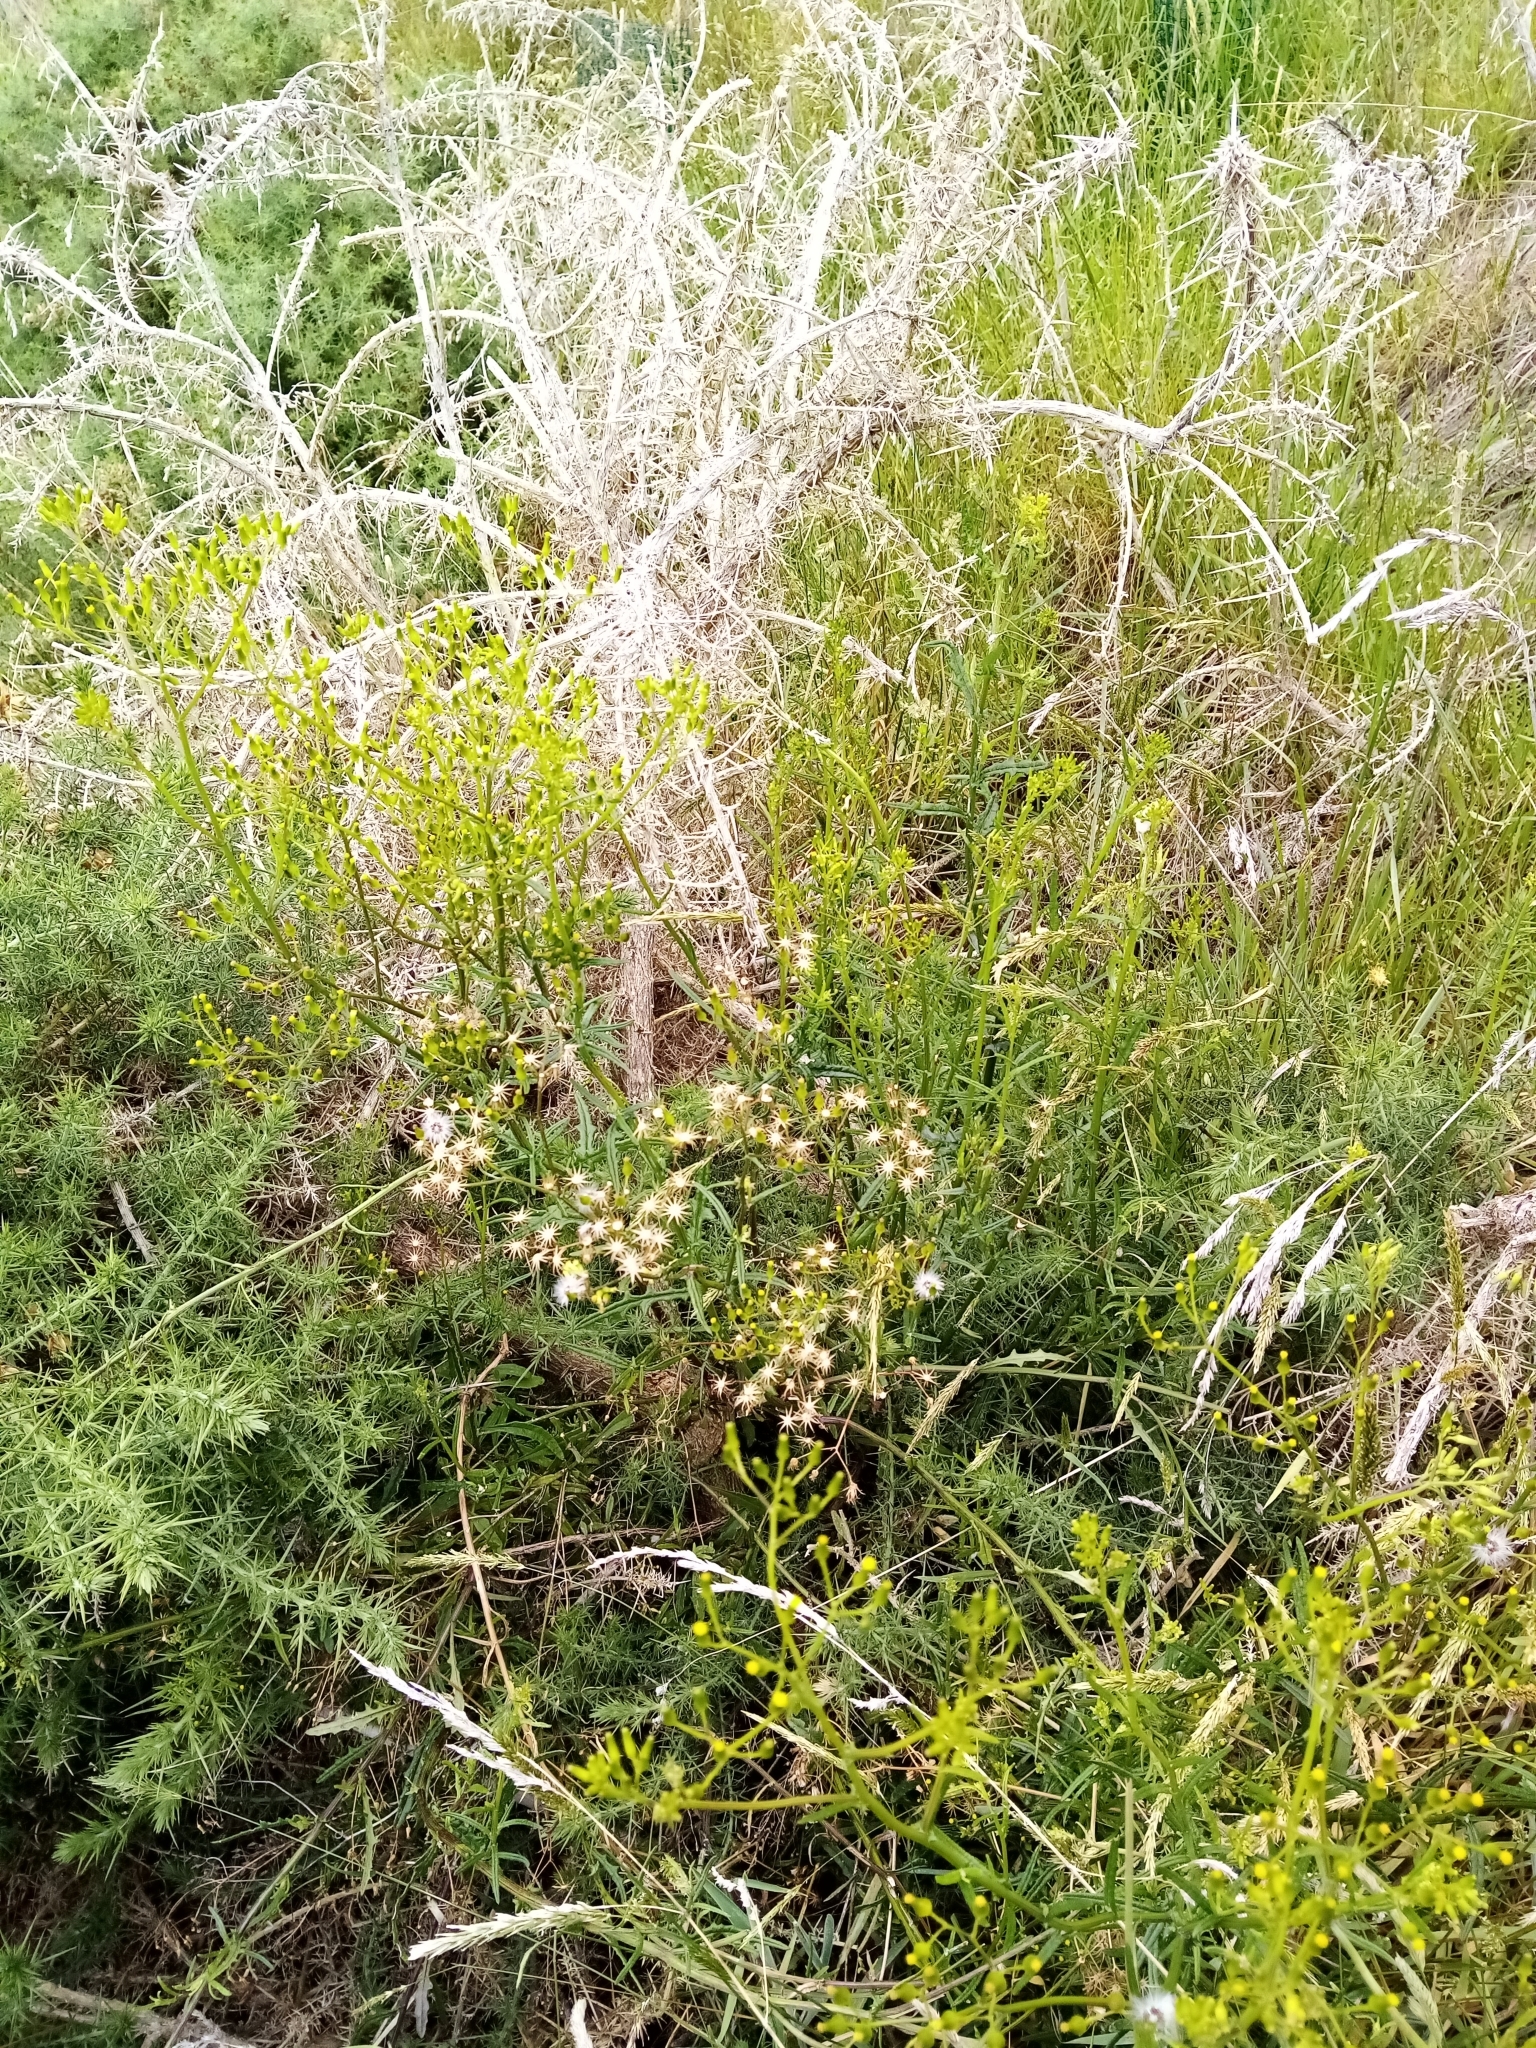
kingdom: Plantae
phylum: Tracheophyta
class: Magnoliopsida
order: Asterales
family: Asteraceae
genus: Senecio
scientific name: Senecio hispidulus
